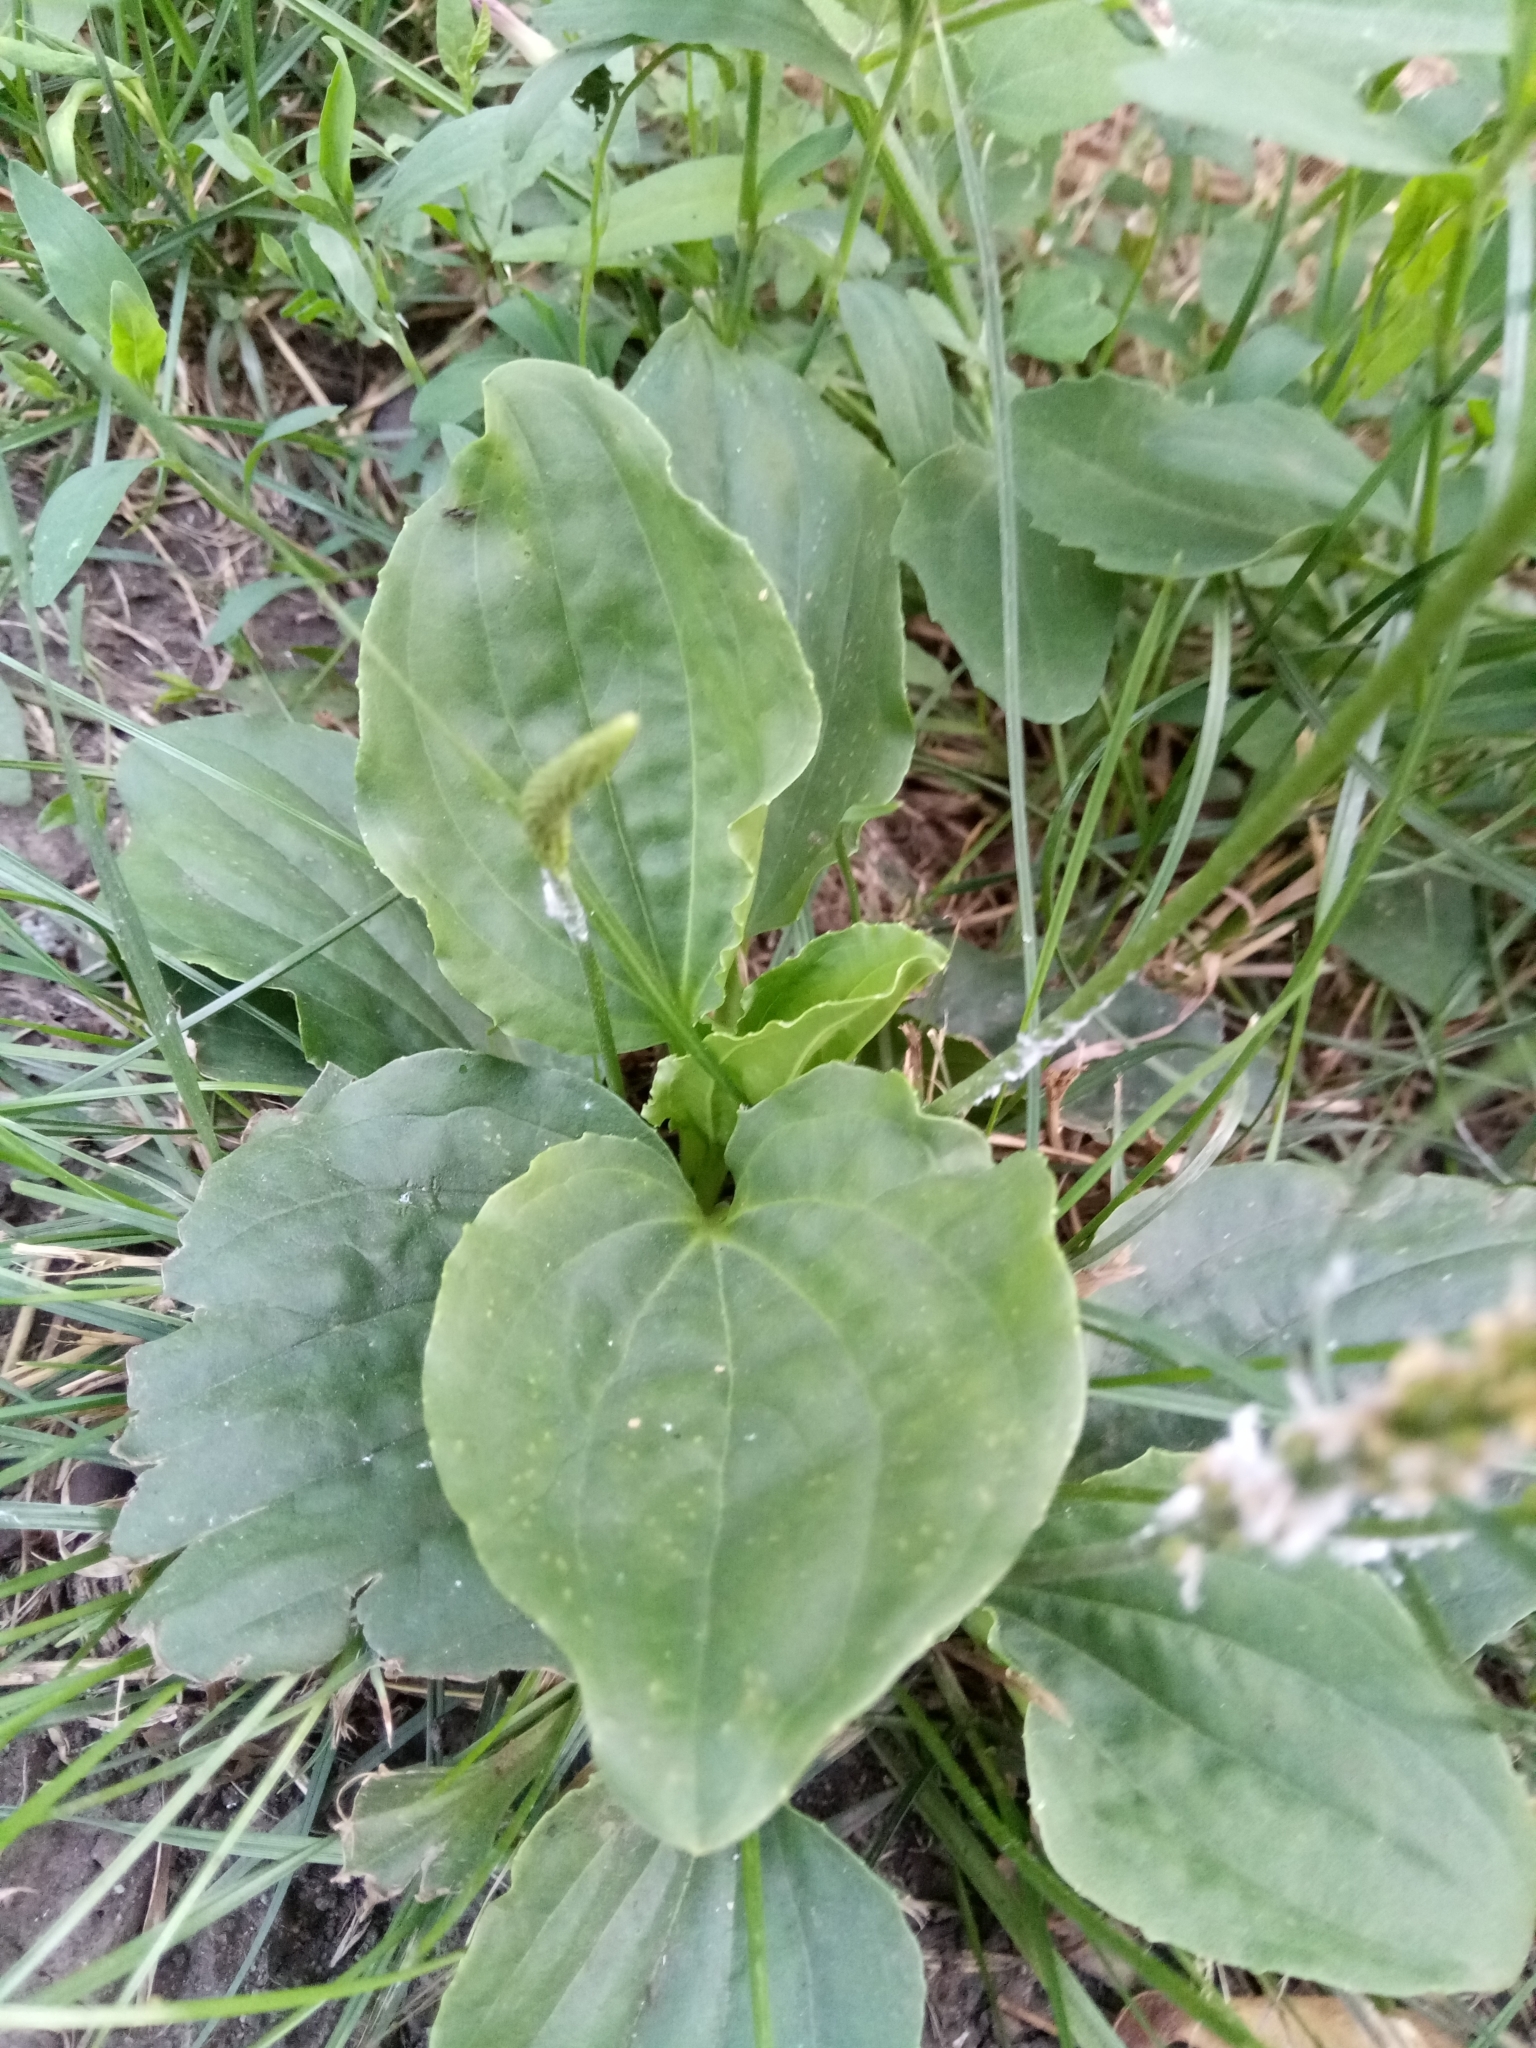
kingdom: Plantae
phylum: Tracheophyta
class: Magnoliopsida
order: Lamiales
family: Plantaginaceae
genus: Plantago
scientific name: Plantago major
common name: Common plantain
